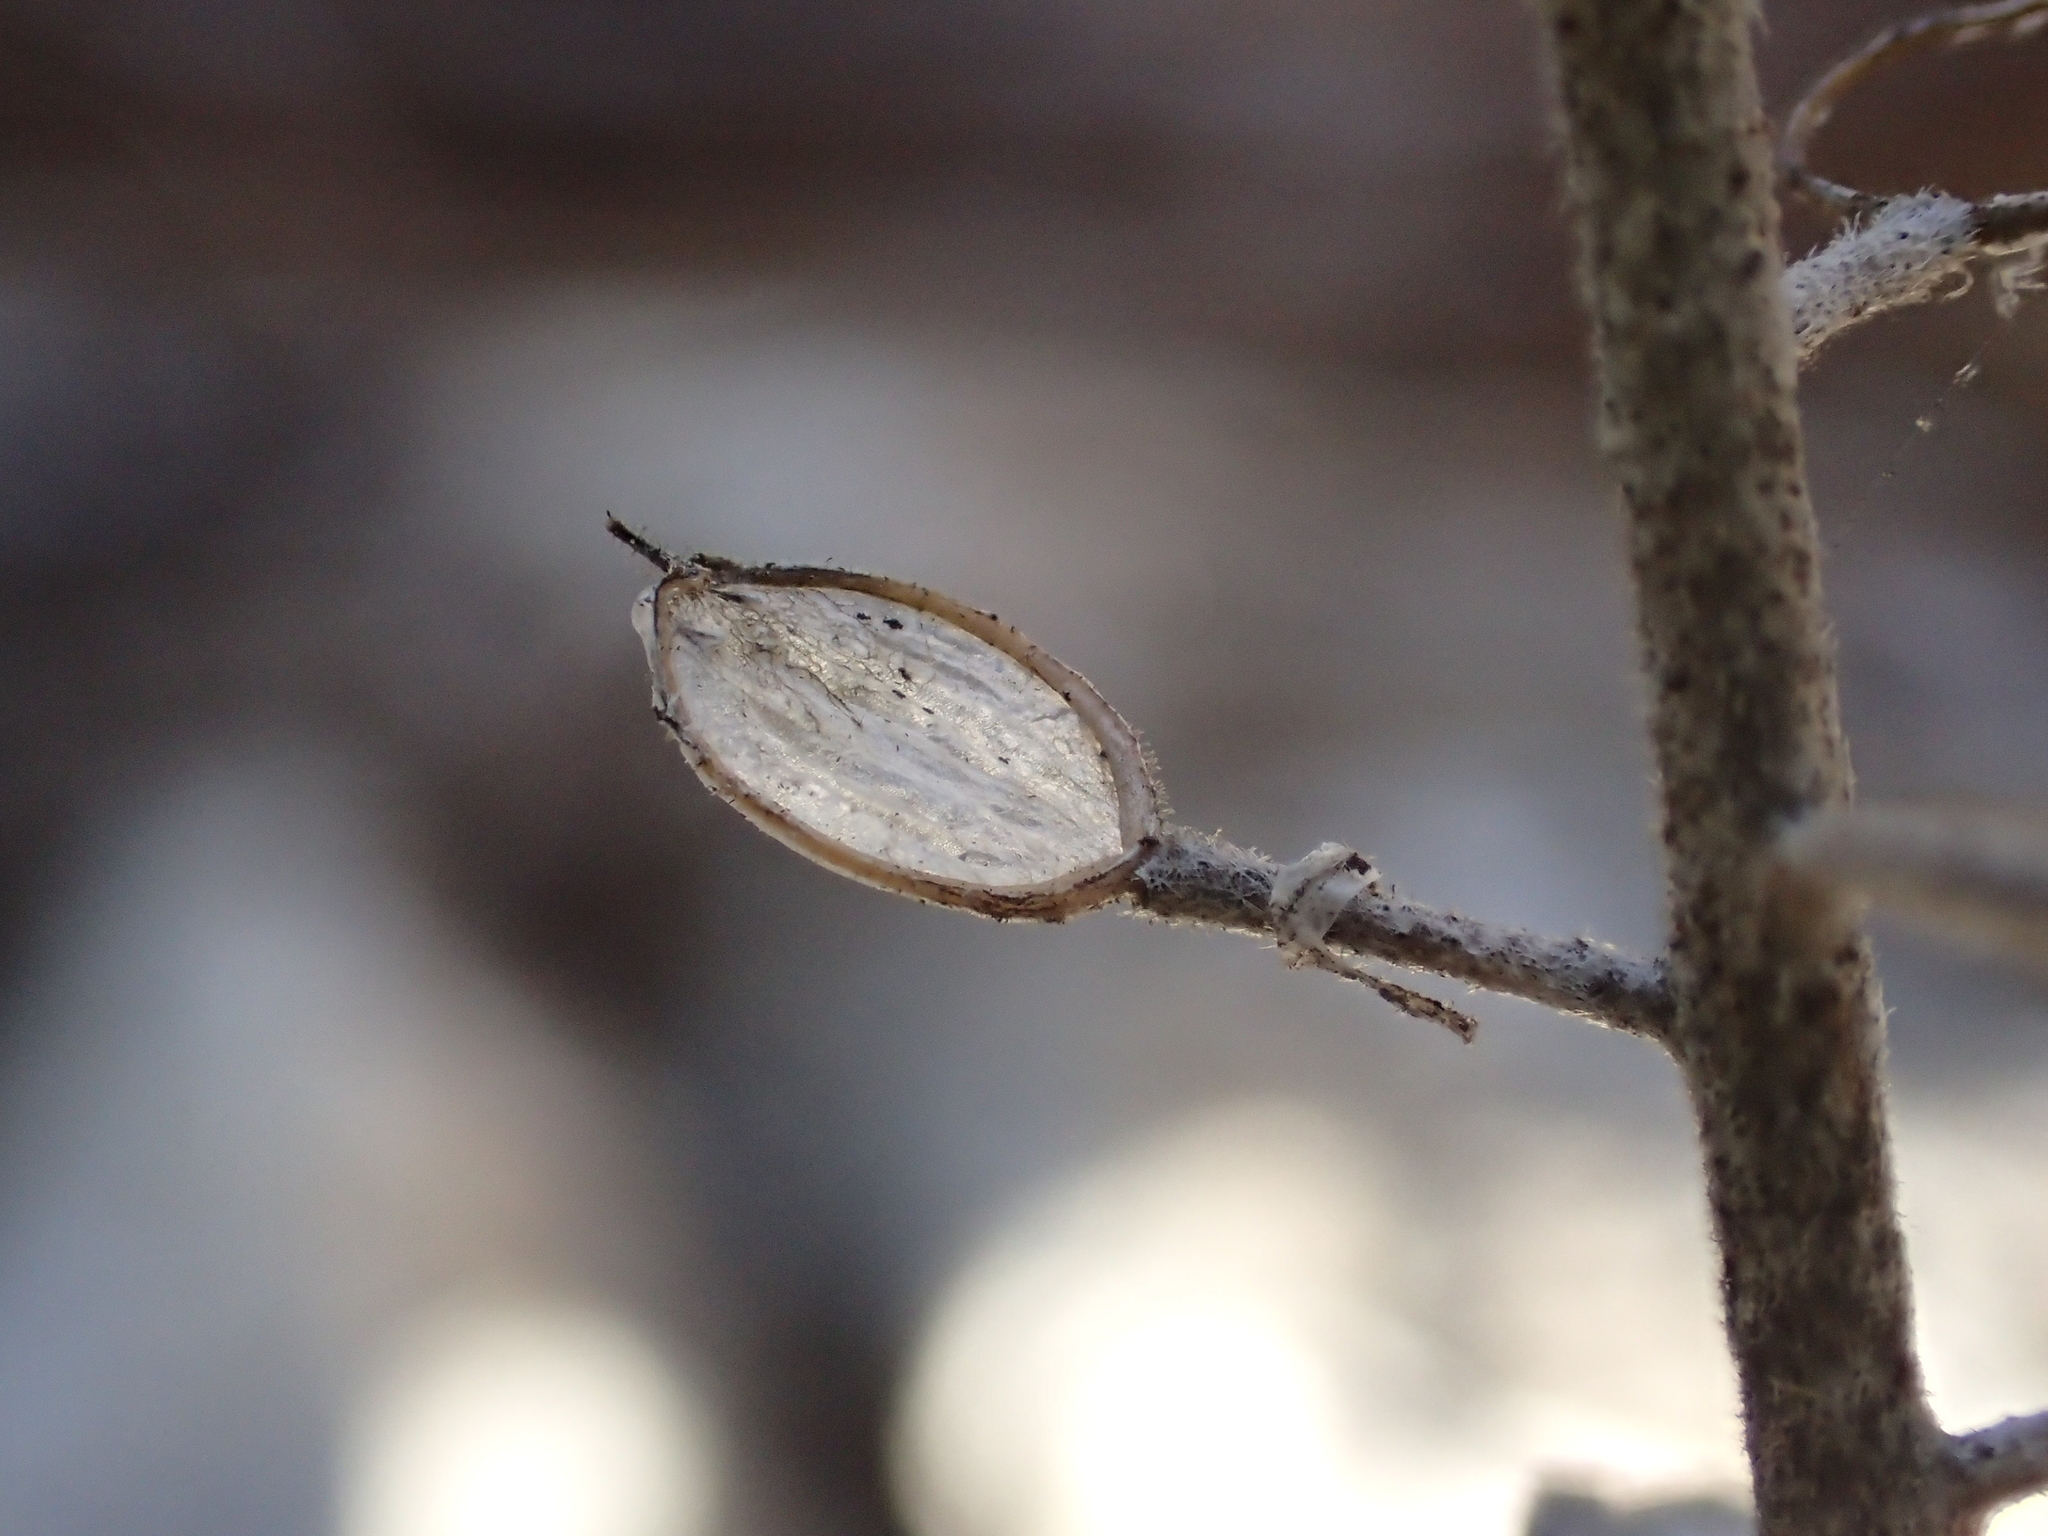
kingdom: Plantae
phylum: Tracheophyta
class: Magnoliopsida
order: Brassicales
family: Brassicaceae
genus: Alyssum
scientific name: Alyssum alyssoides
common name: Small alison
